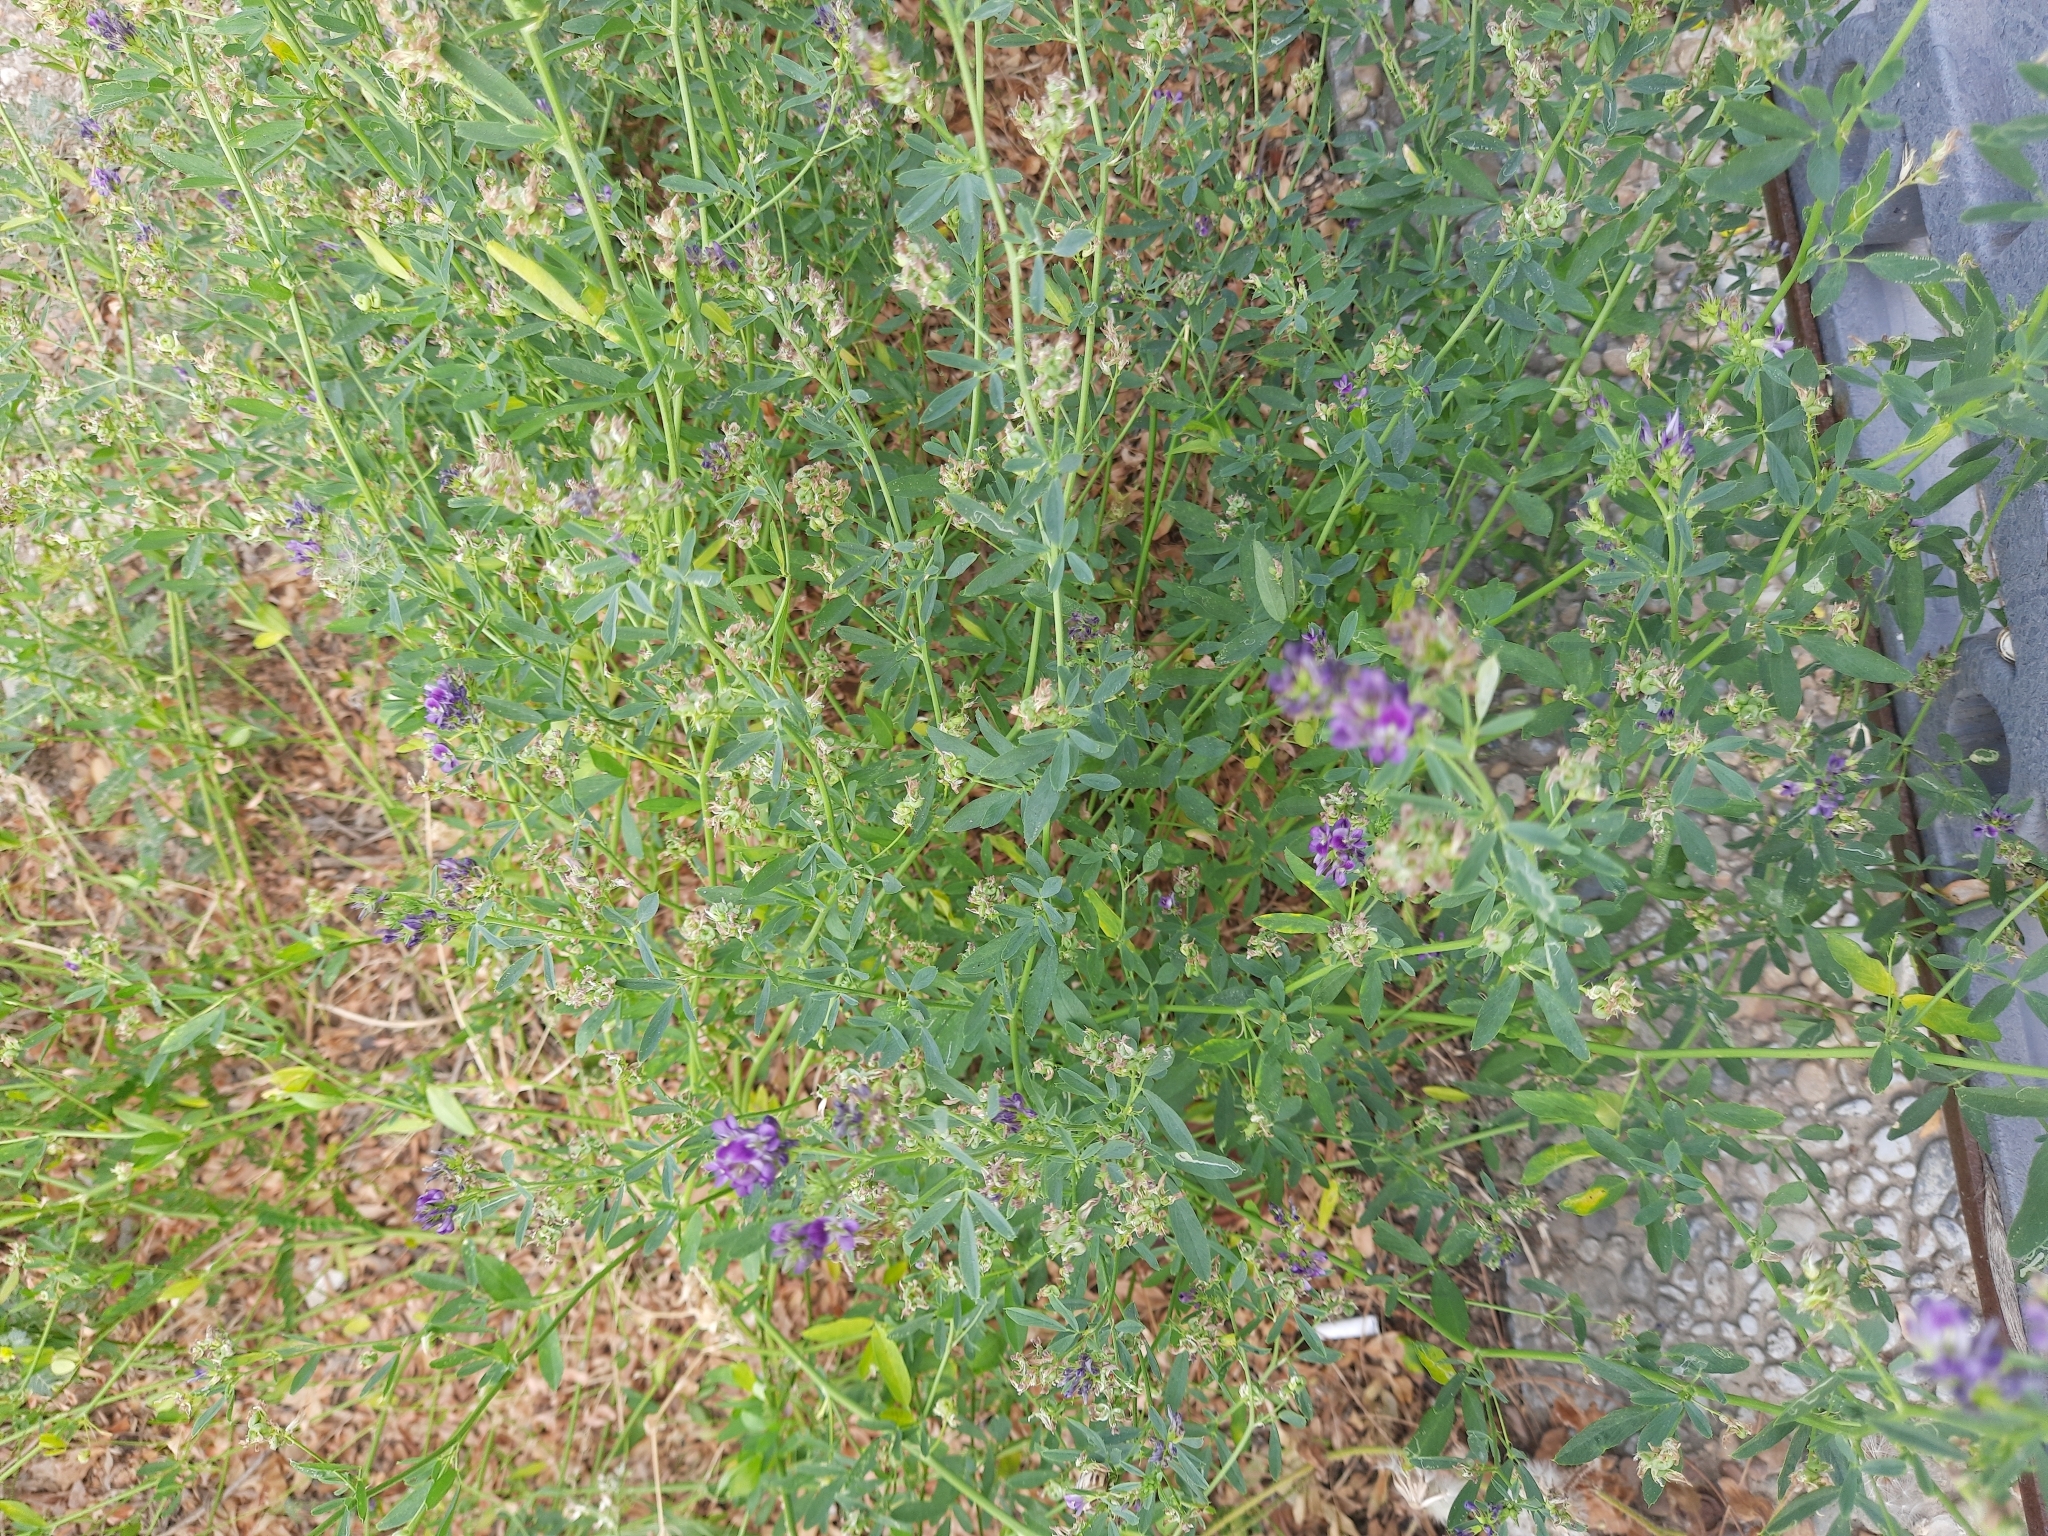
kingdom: Plantae
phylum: Tracheophyta
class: Magnoliopsida
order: Fabales
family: Fabaceae
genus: Medicago
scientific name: Medicago varia
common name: Sand lucerne
